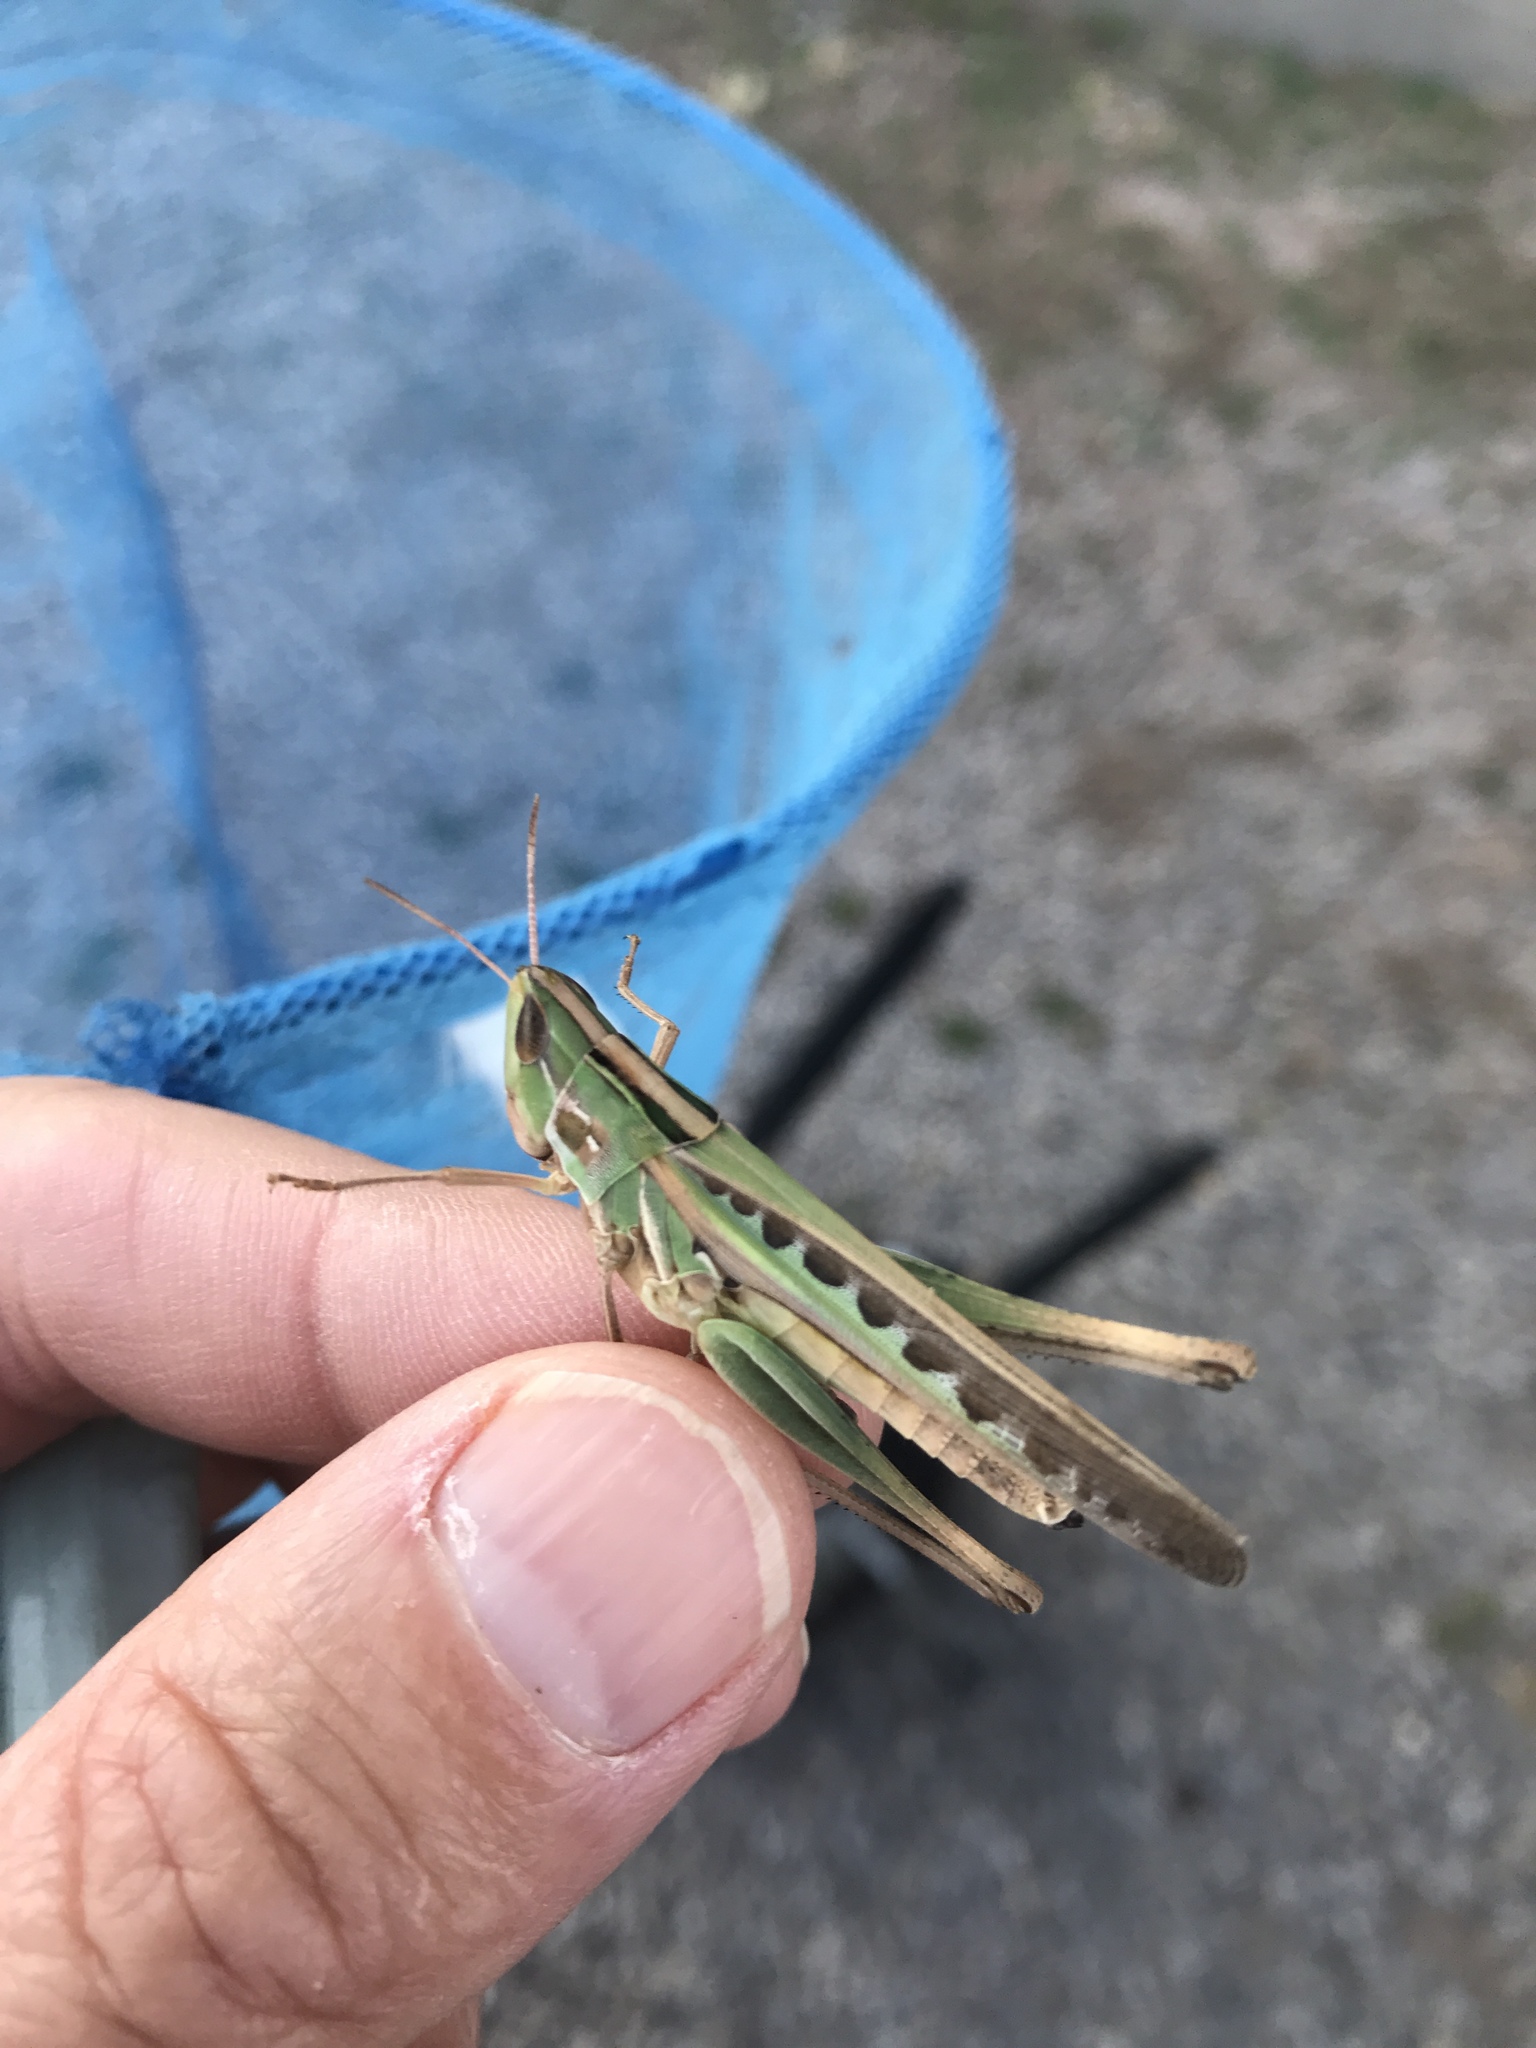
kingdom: Animalia
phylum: Arthropoda
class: Insecta
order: Orthoptera
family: Acrididae
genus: Syrbula
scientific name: Syrbula admirabilis
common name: Handsome grasshopper
